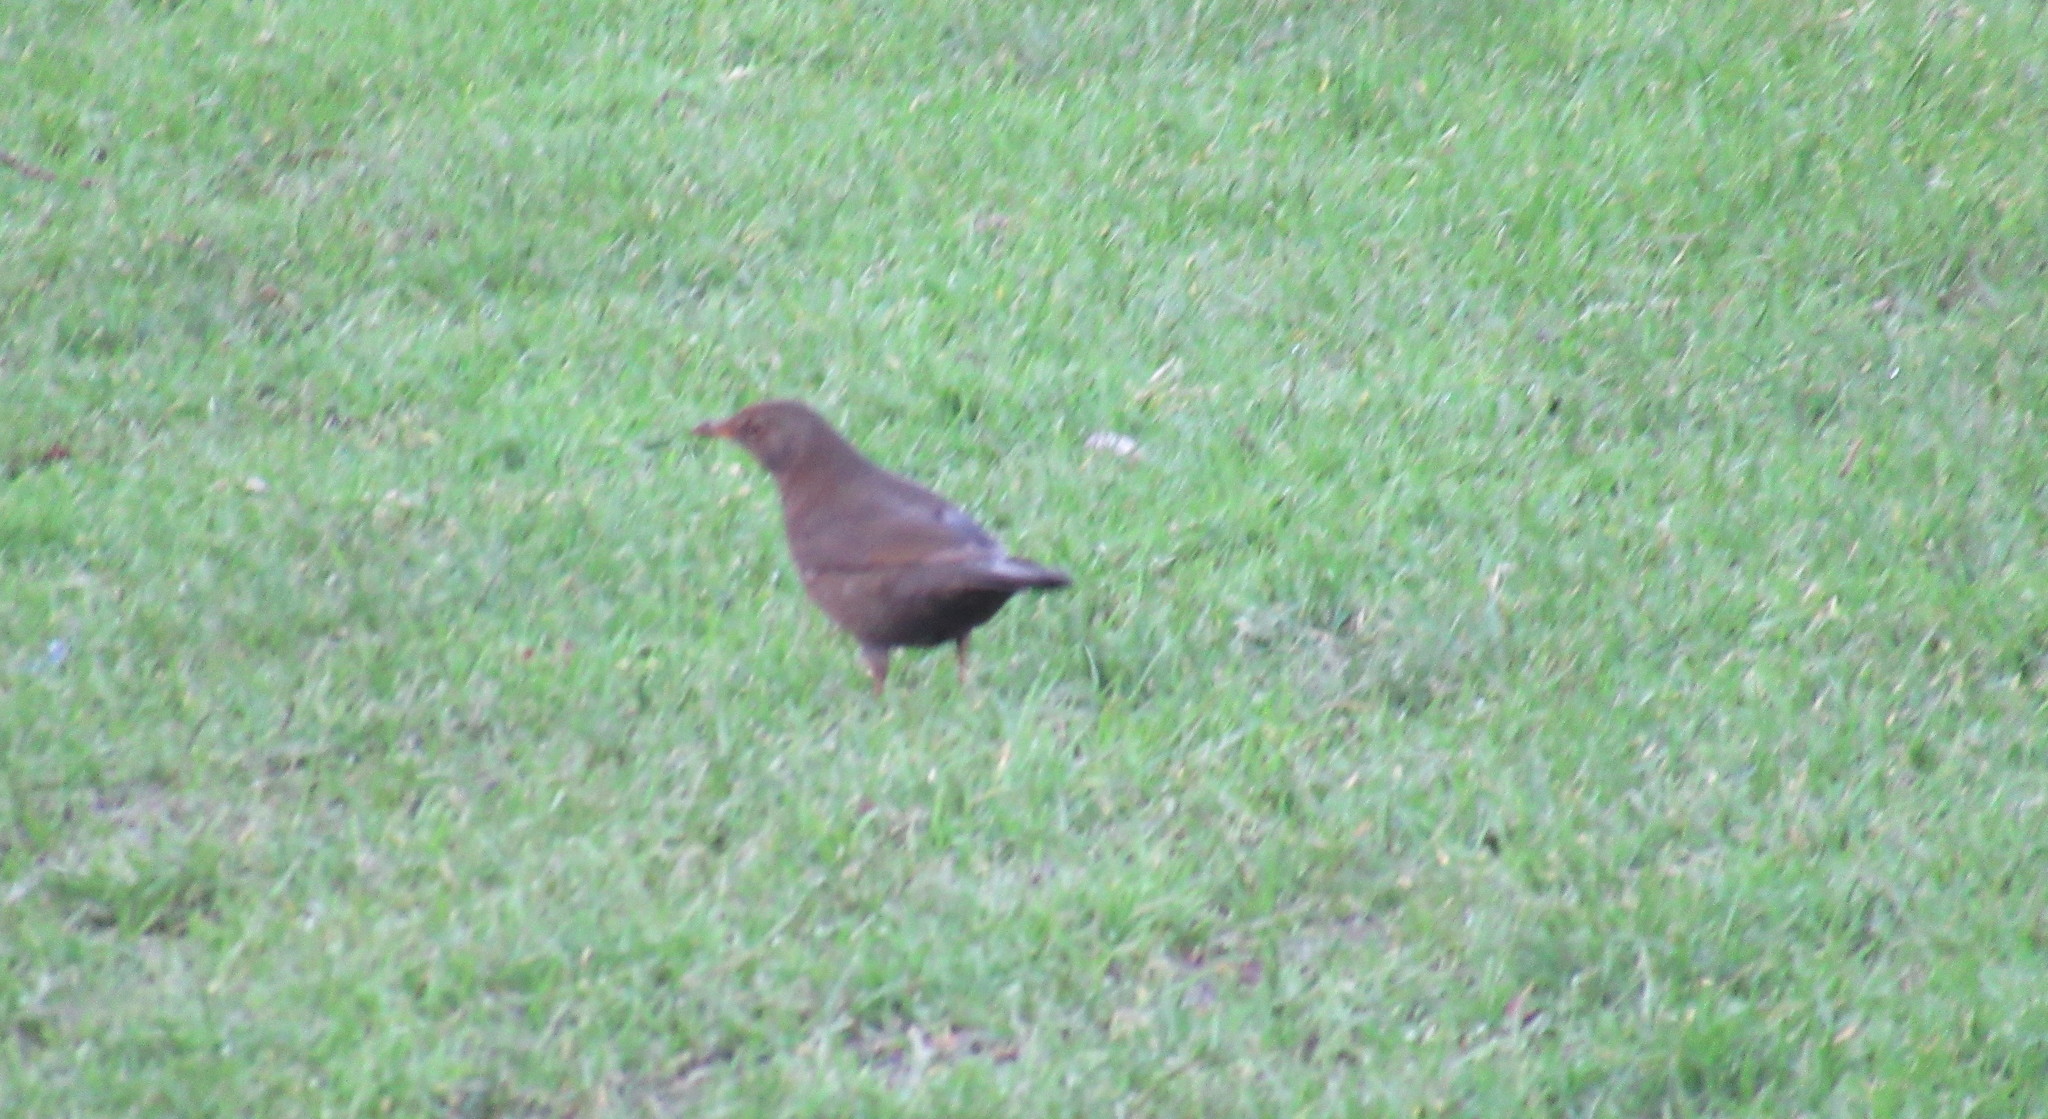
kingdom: Animalia
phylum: Chordata
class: Aves
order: Passeriformes
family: Turdidae
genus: Turdus
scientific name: Turdus merula
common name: Common blackbird
